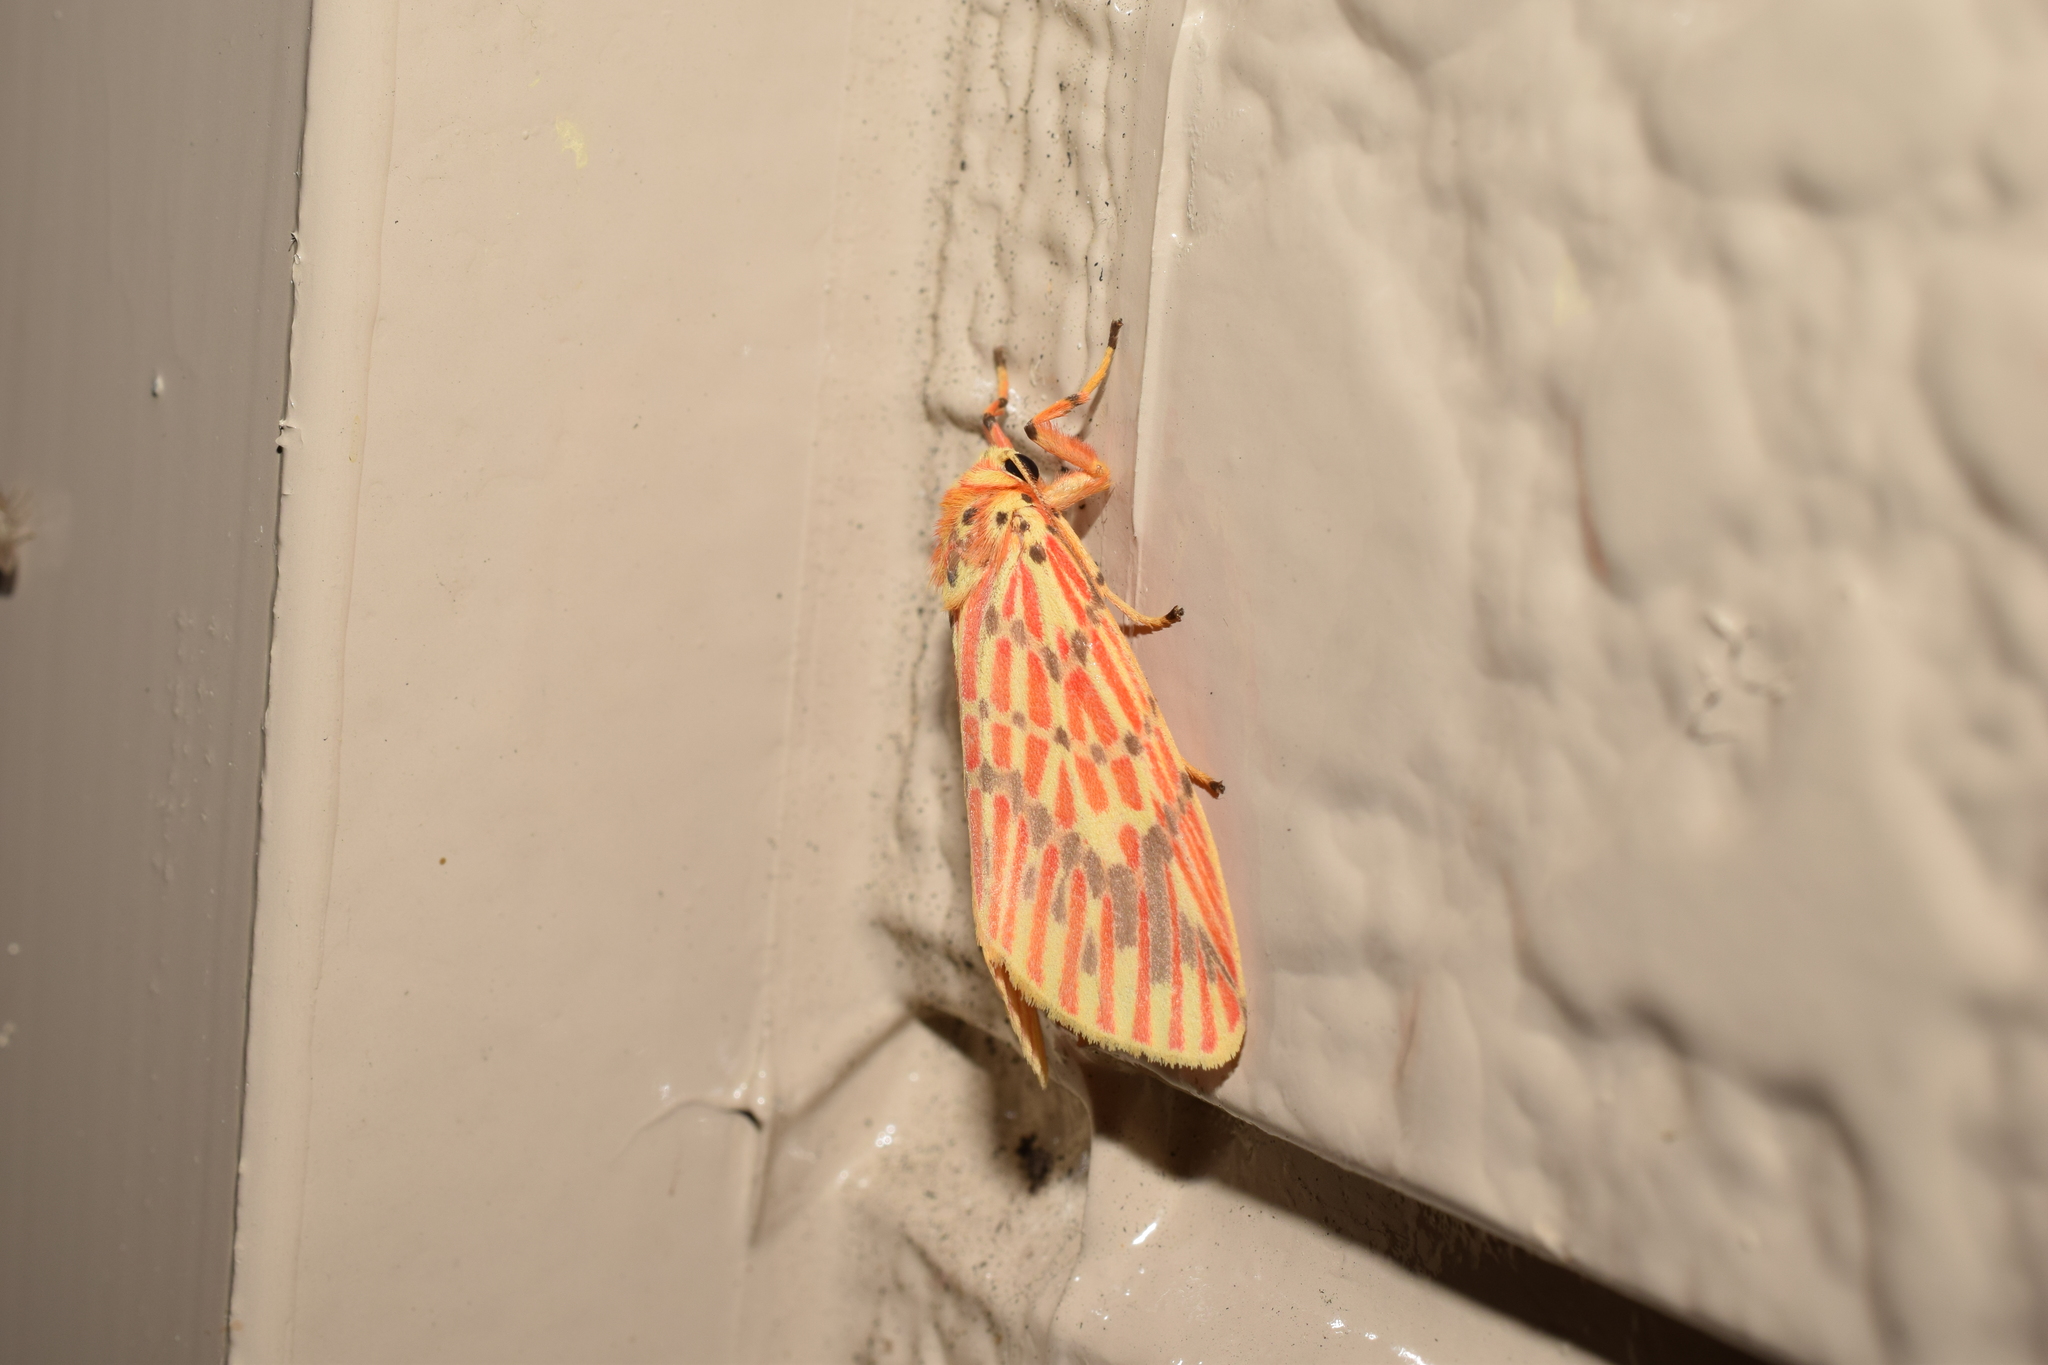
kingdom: Animalia
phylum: Arthropoda
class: Insecta
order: Lepidoptera
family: Erebidae
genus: Barsine
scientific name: Barsine striata
